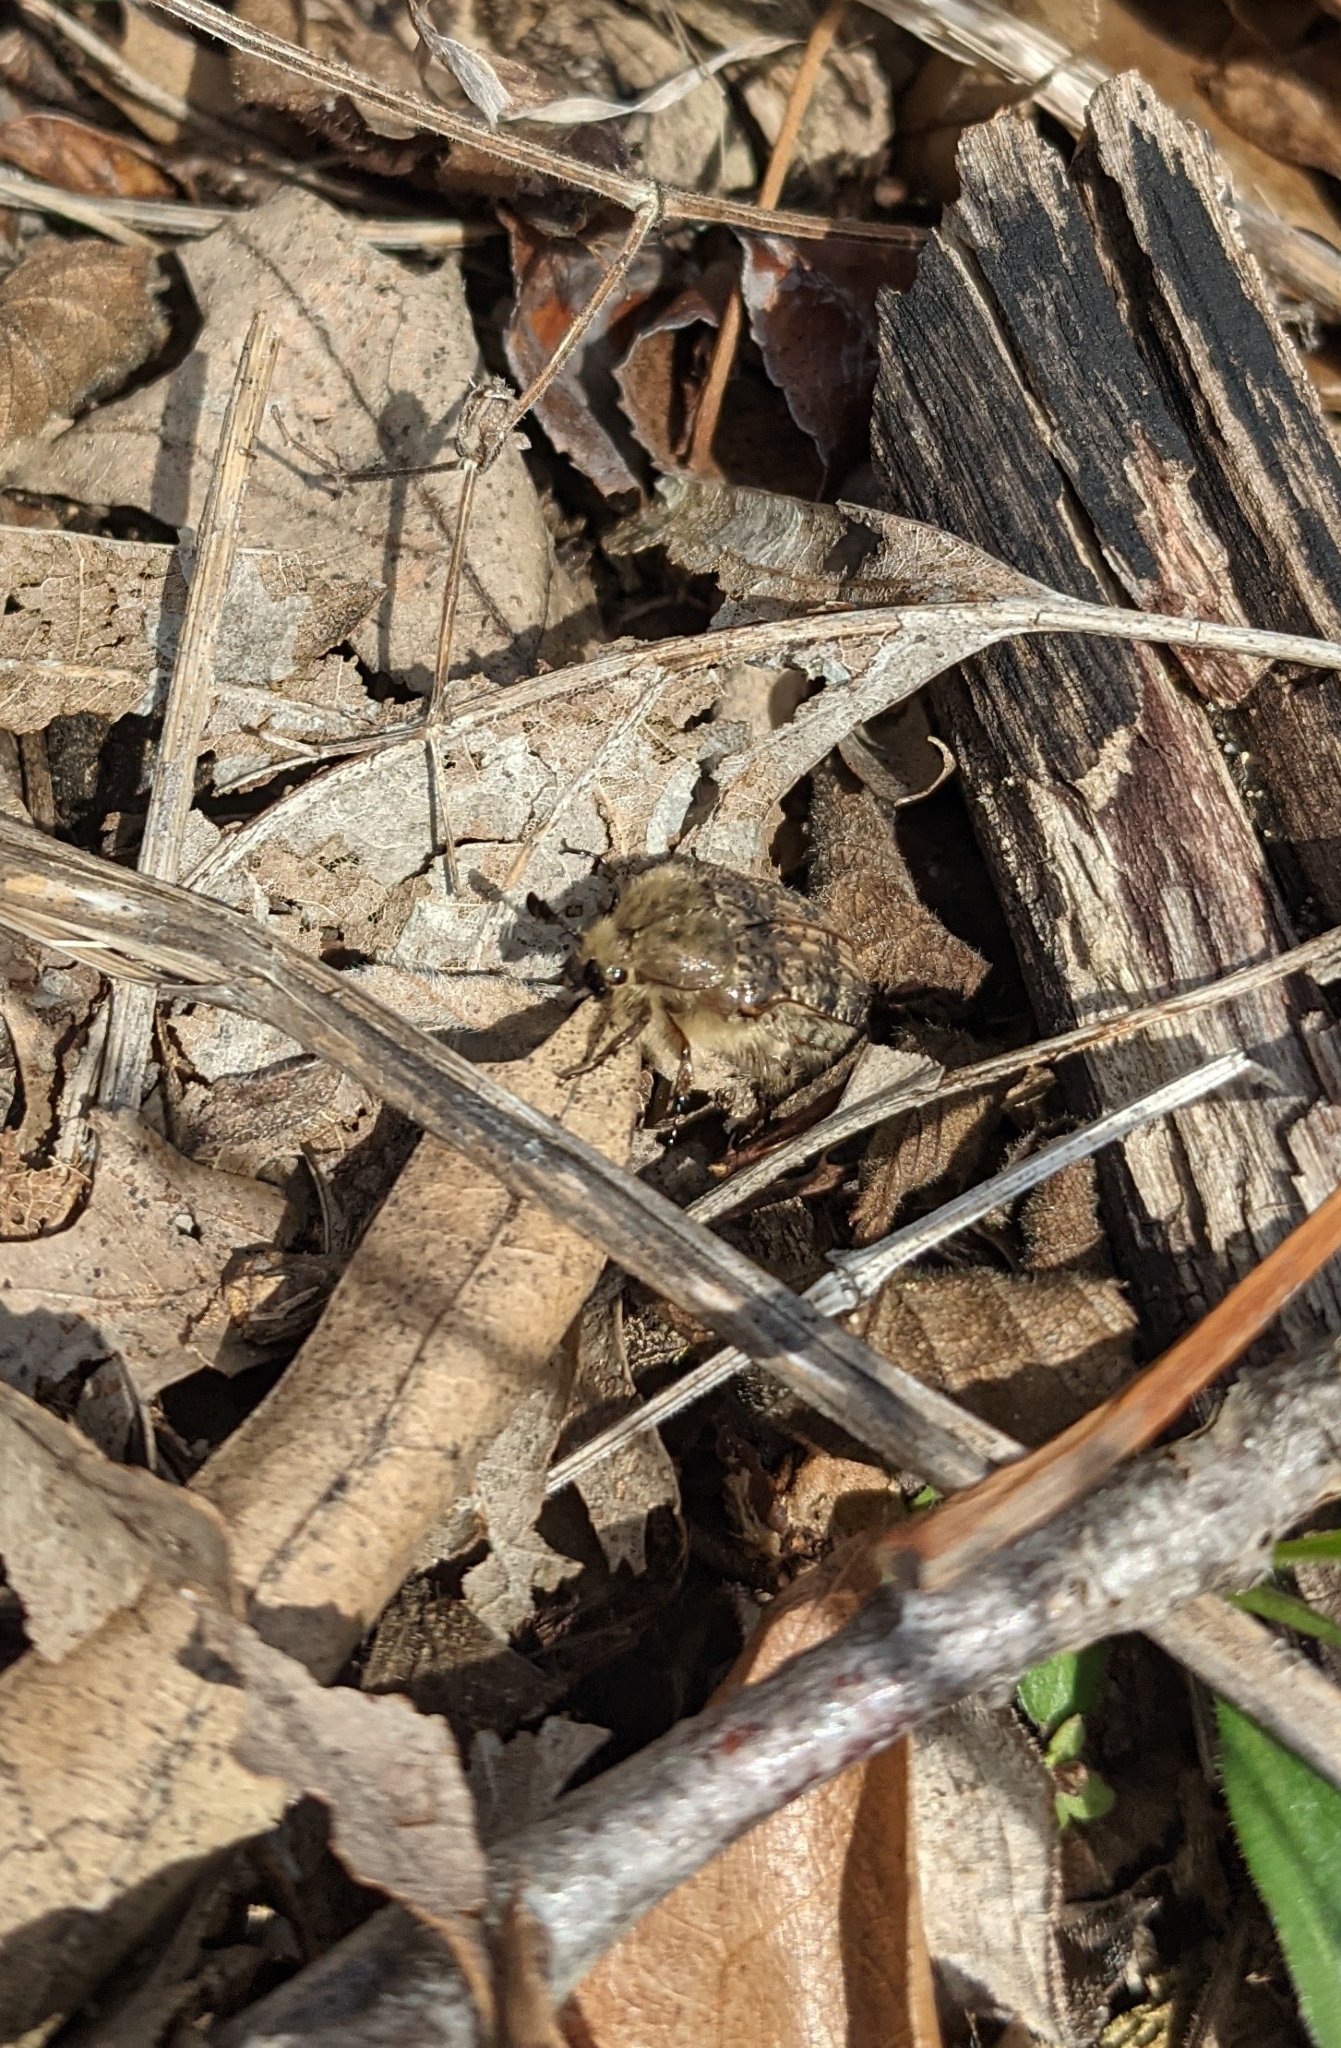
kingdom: Animalia
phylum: Arthropoda
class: Insecta
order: Coleoptera
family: Scarabaeidae
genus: Euphoria
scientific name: Euphoria inda
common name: Bumble flower beetle
